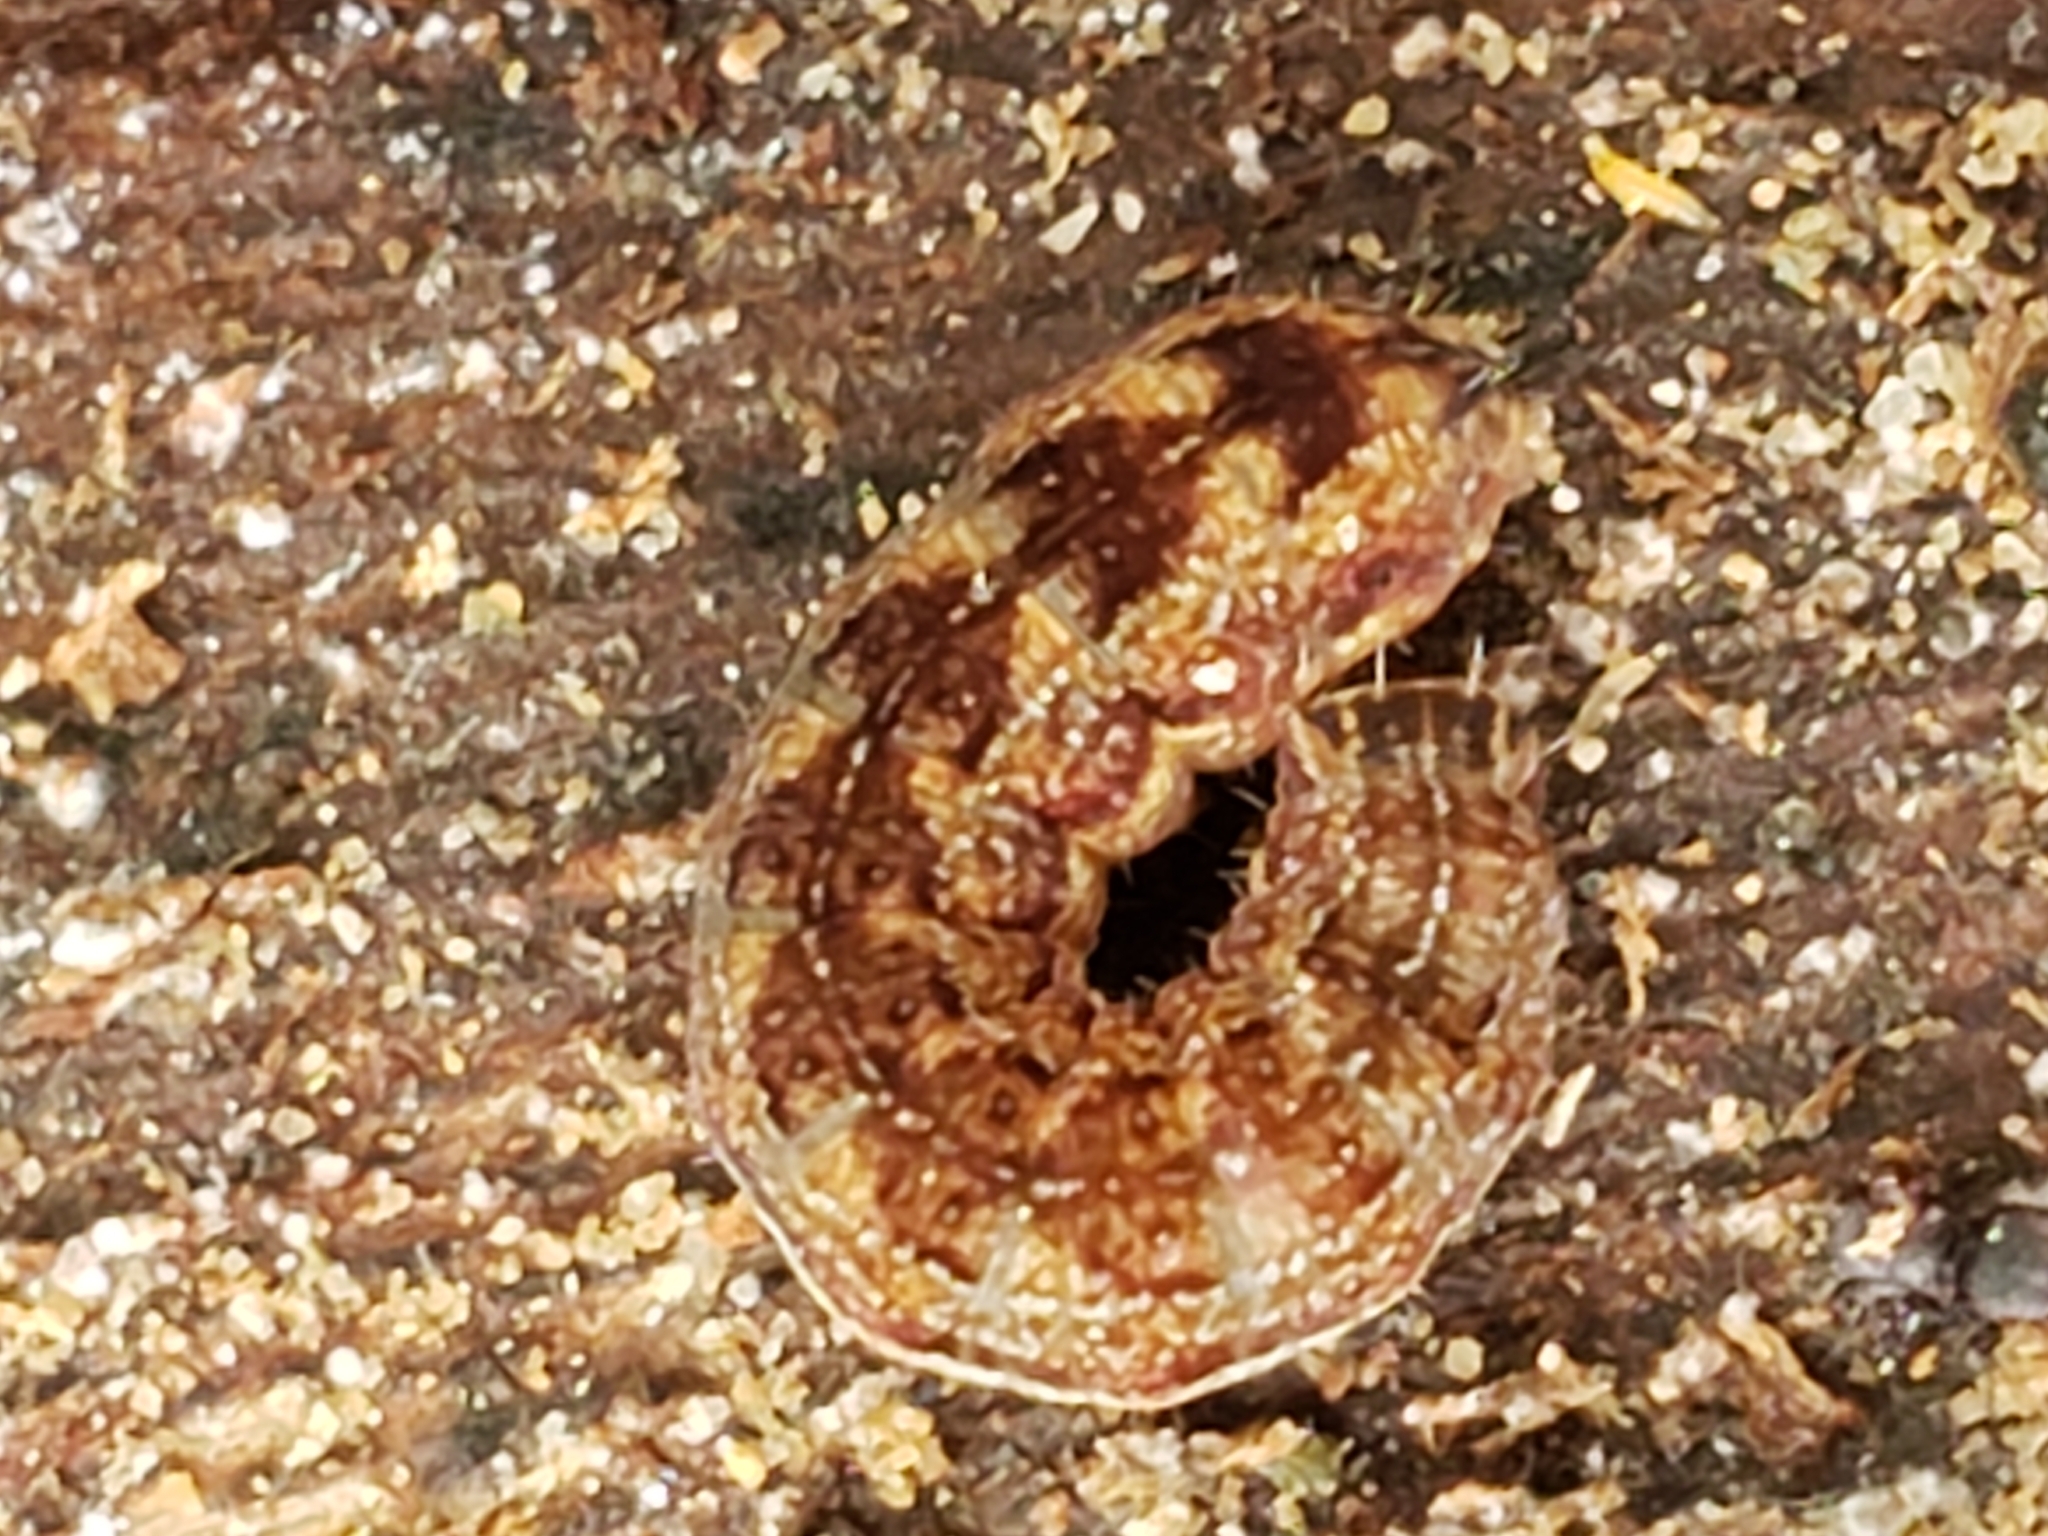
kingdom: Animalia
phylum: Arthropoda
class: Insecta
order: Lepidoptera
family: Noctuidae
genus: Agrochola
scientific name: Agrochola bicolorago
